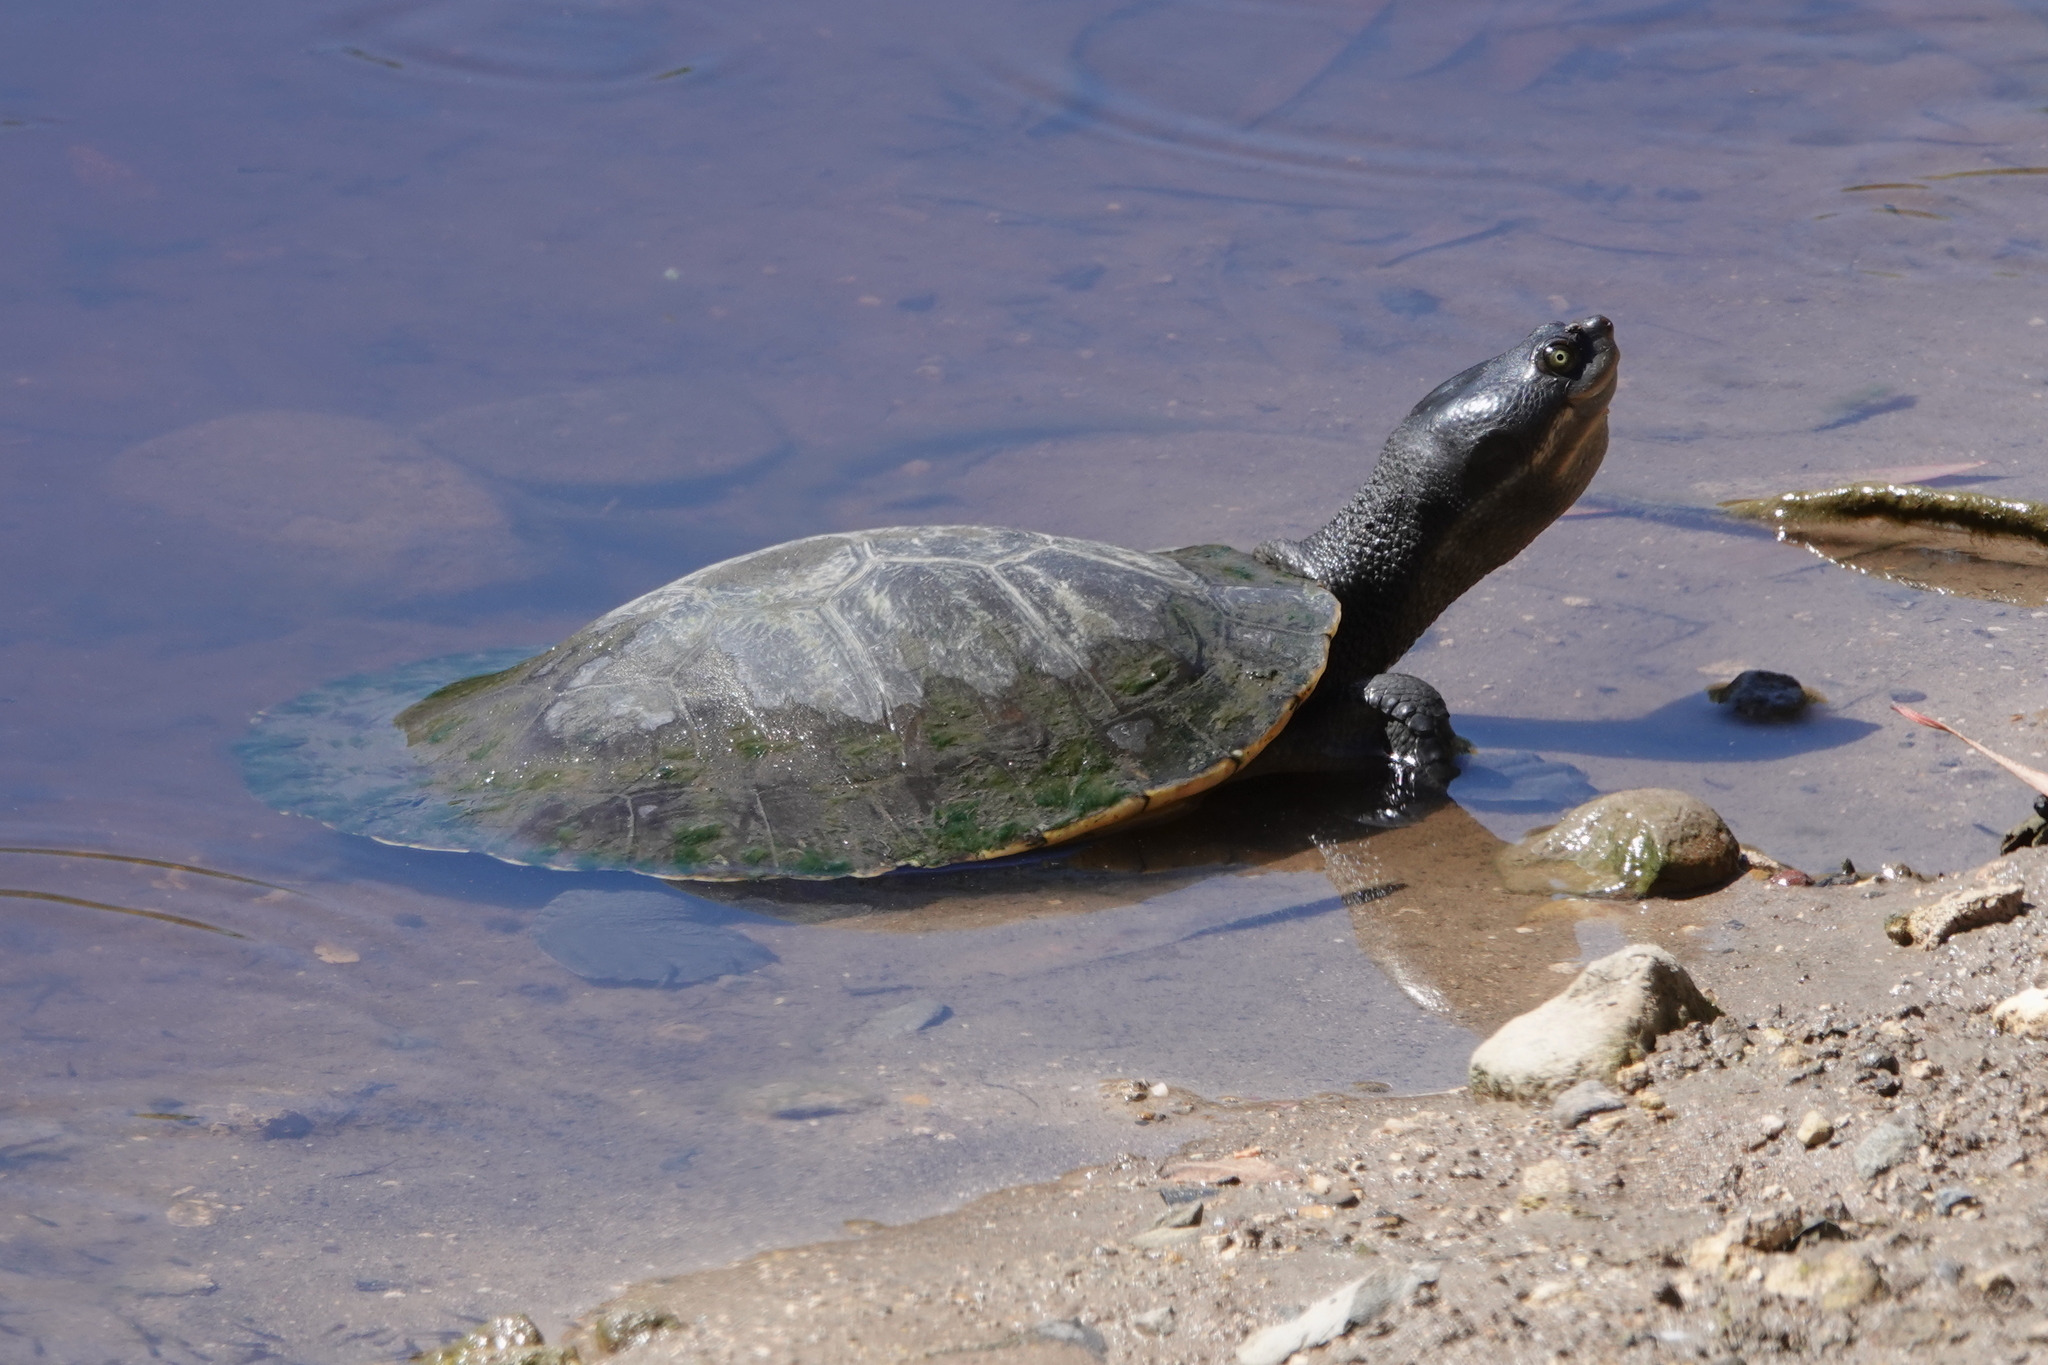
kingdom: Animalia
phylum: Chordata
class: Testudines
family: Chelidae
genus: Emydura
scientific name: Emydura macquarii
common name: Murray river turtle
